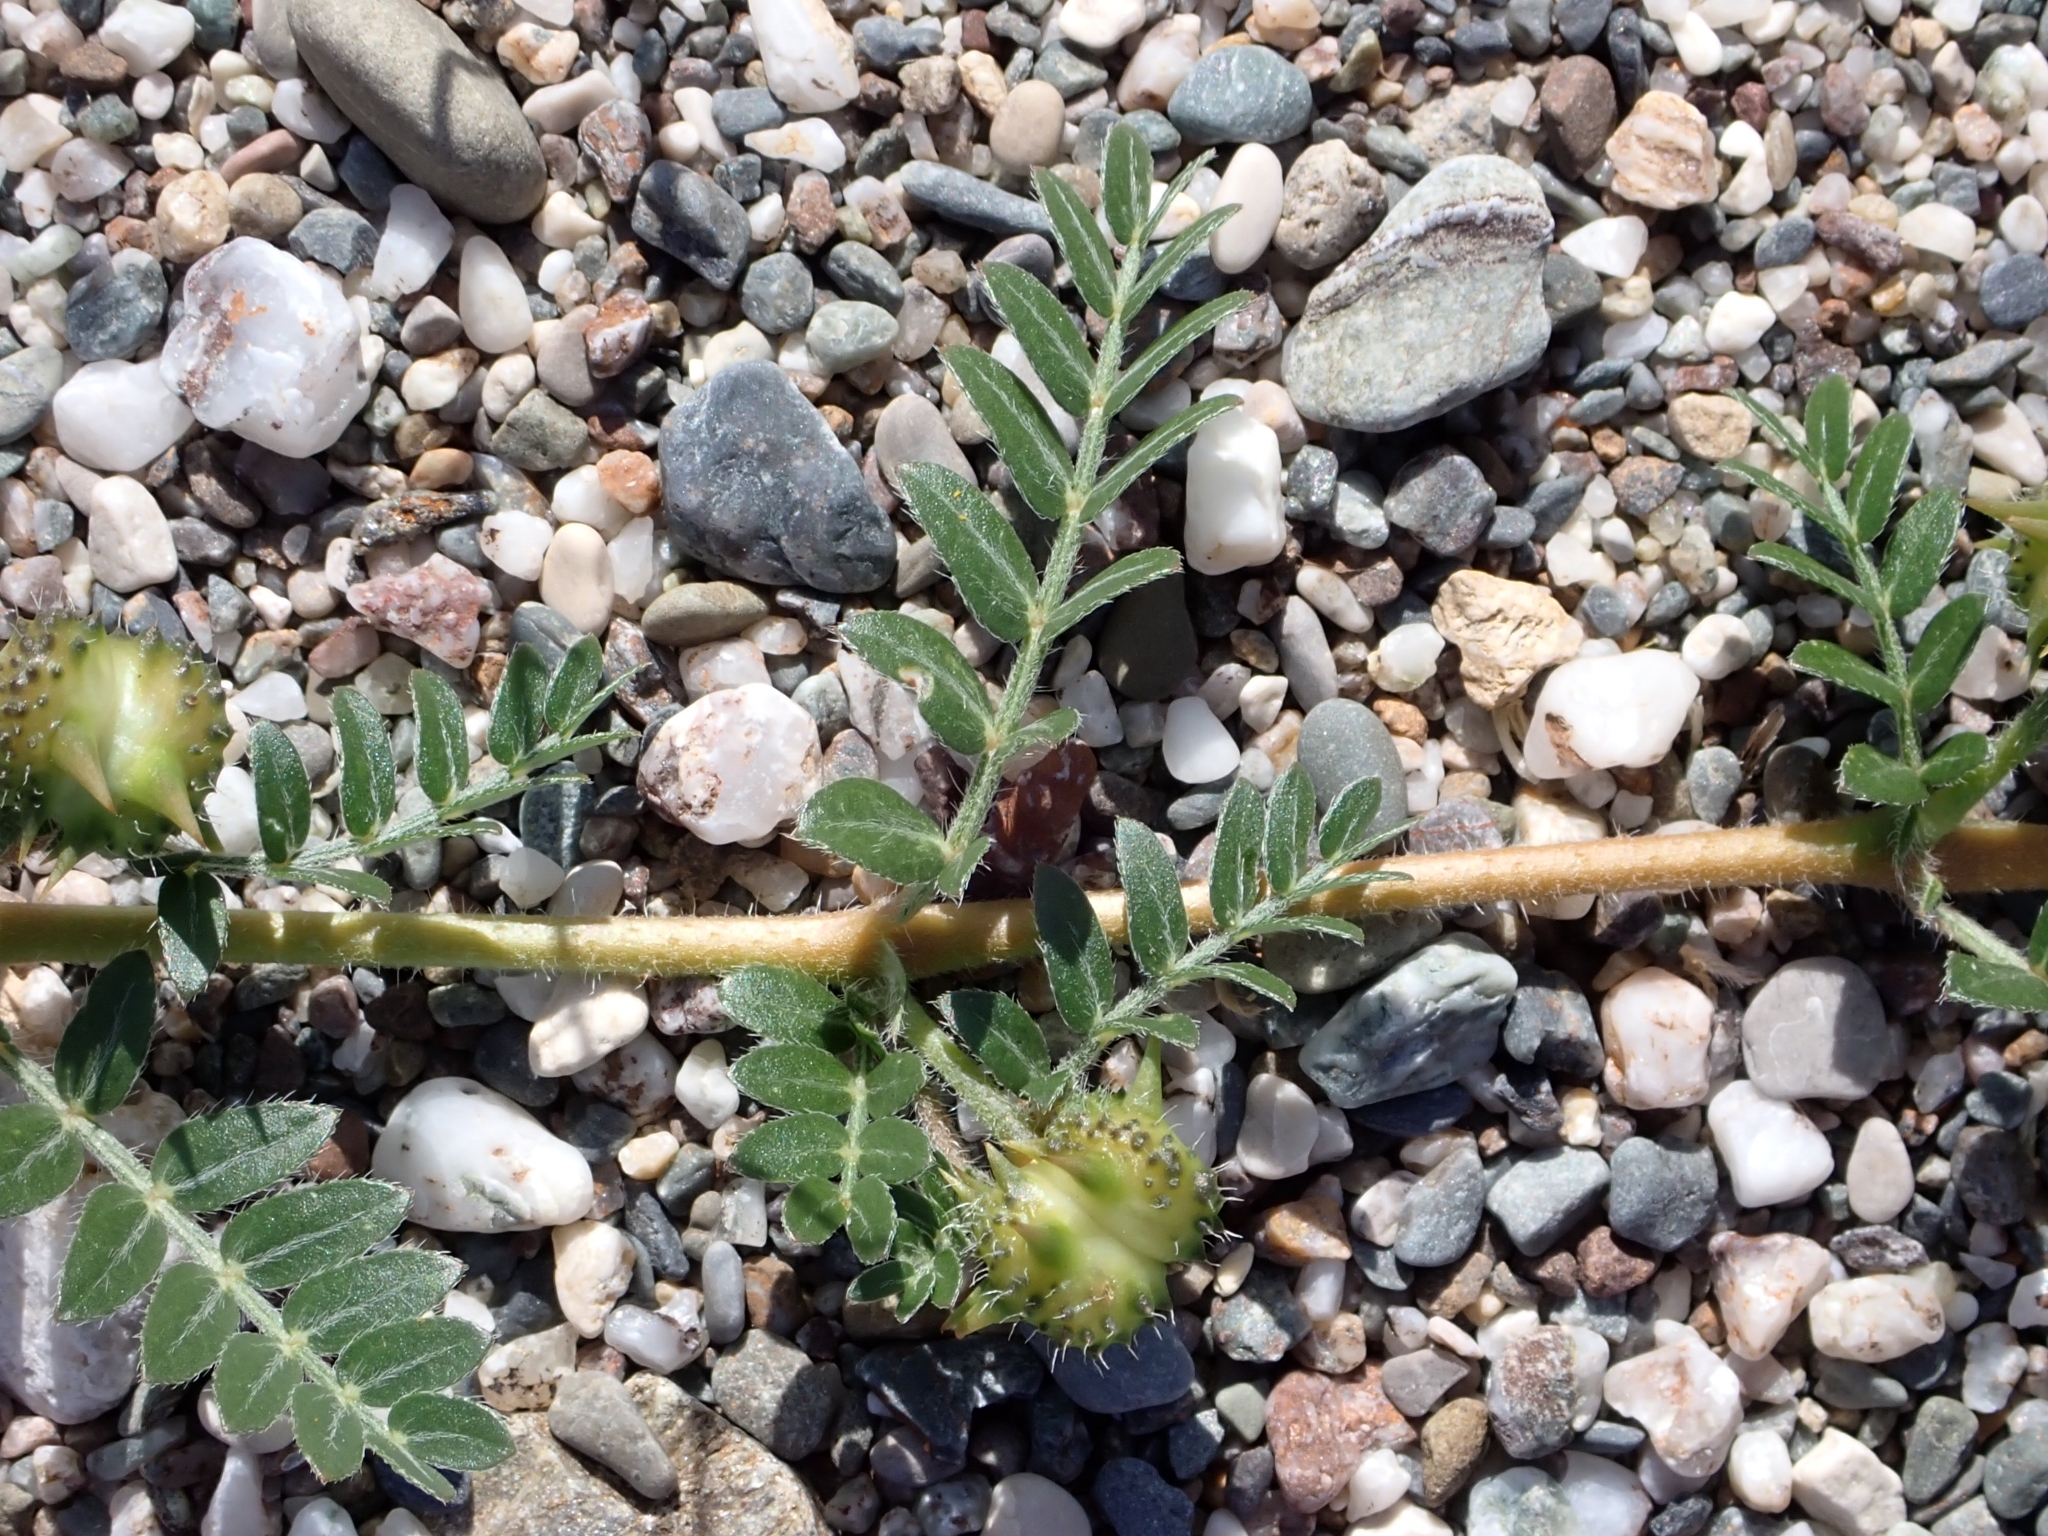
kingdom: Plantae
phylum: Tracheophyta
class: Magnoliopsida
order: Zygophyllales
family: Zygophyllaceae
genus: Tribulus
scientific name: Tribulus terrestris
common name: Puncturevine
